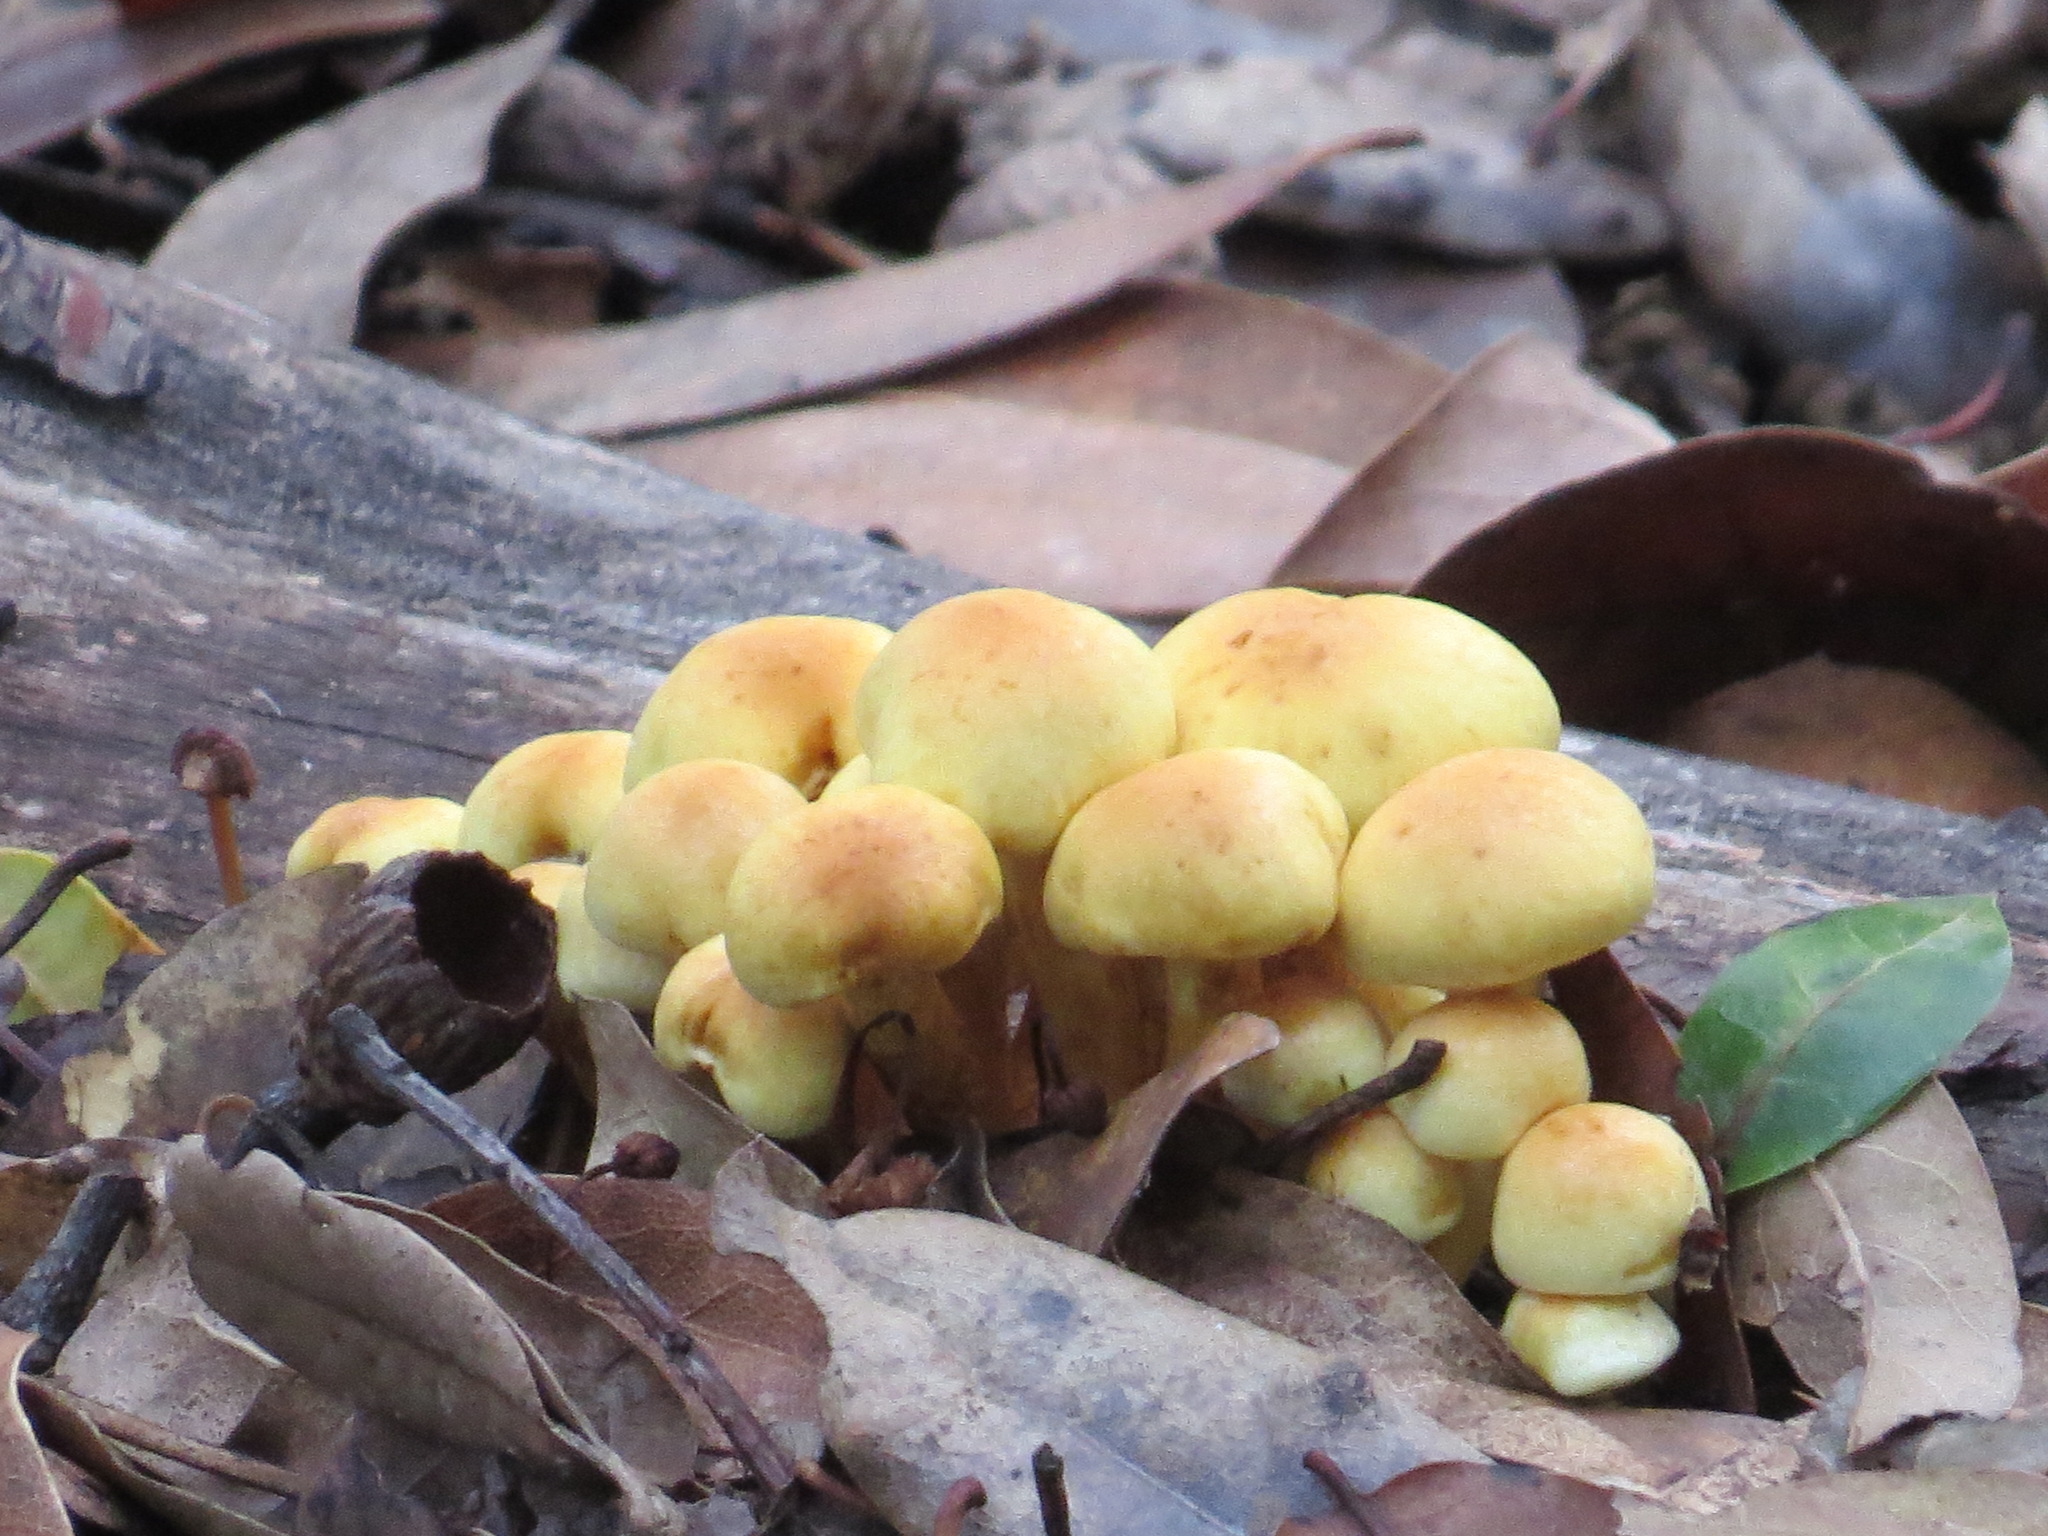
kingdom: Fungi
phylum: Basidiomycota
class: Agaricomycetes
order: Agaricales
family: Strophariaceae
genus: Hypholoma
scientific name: Hypholoma fasciculare
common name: Sulphur tuft
